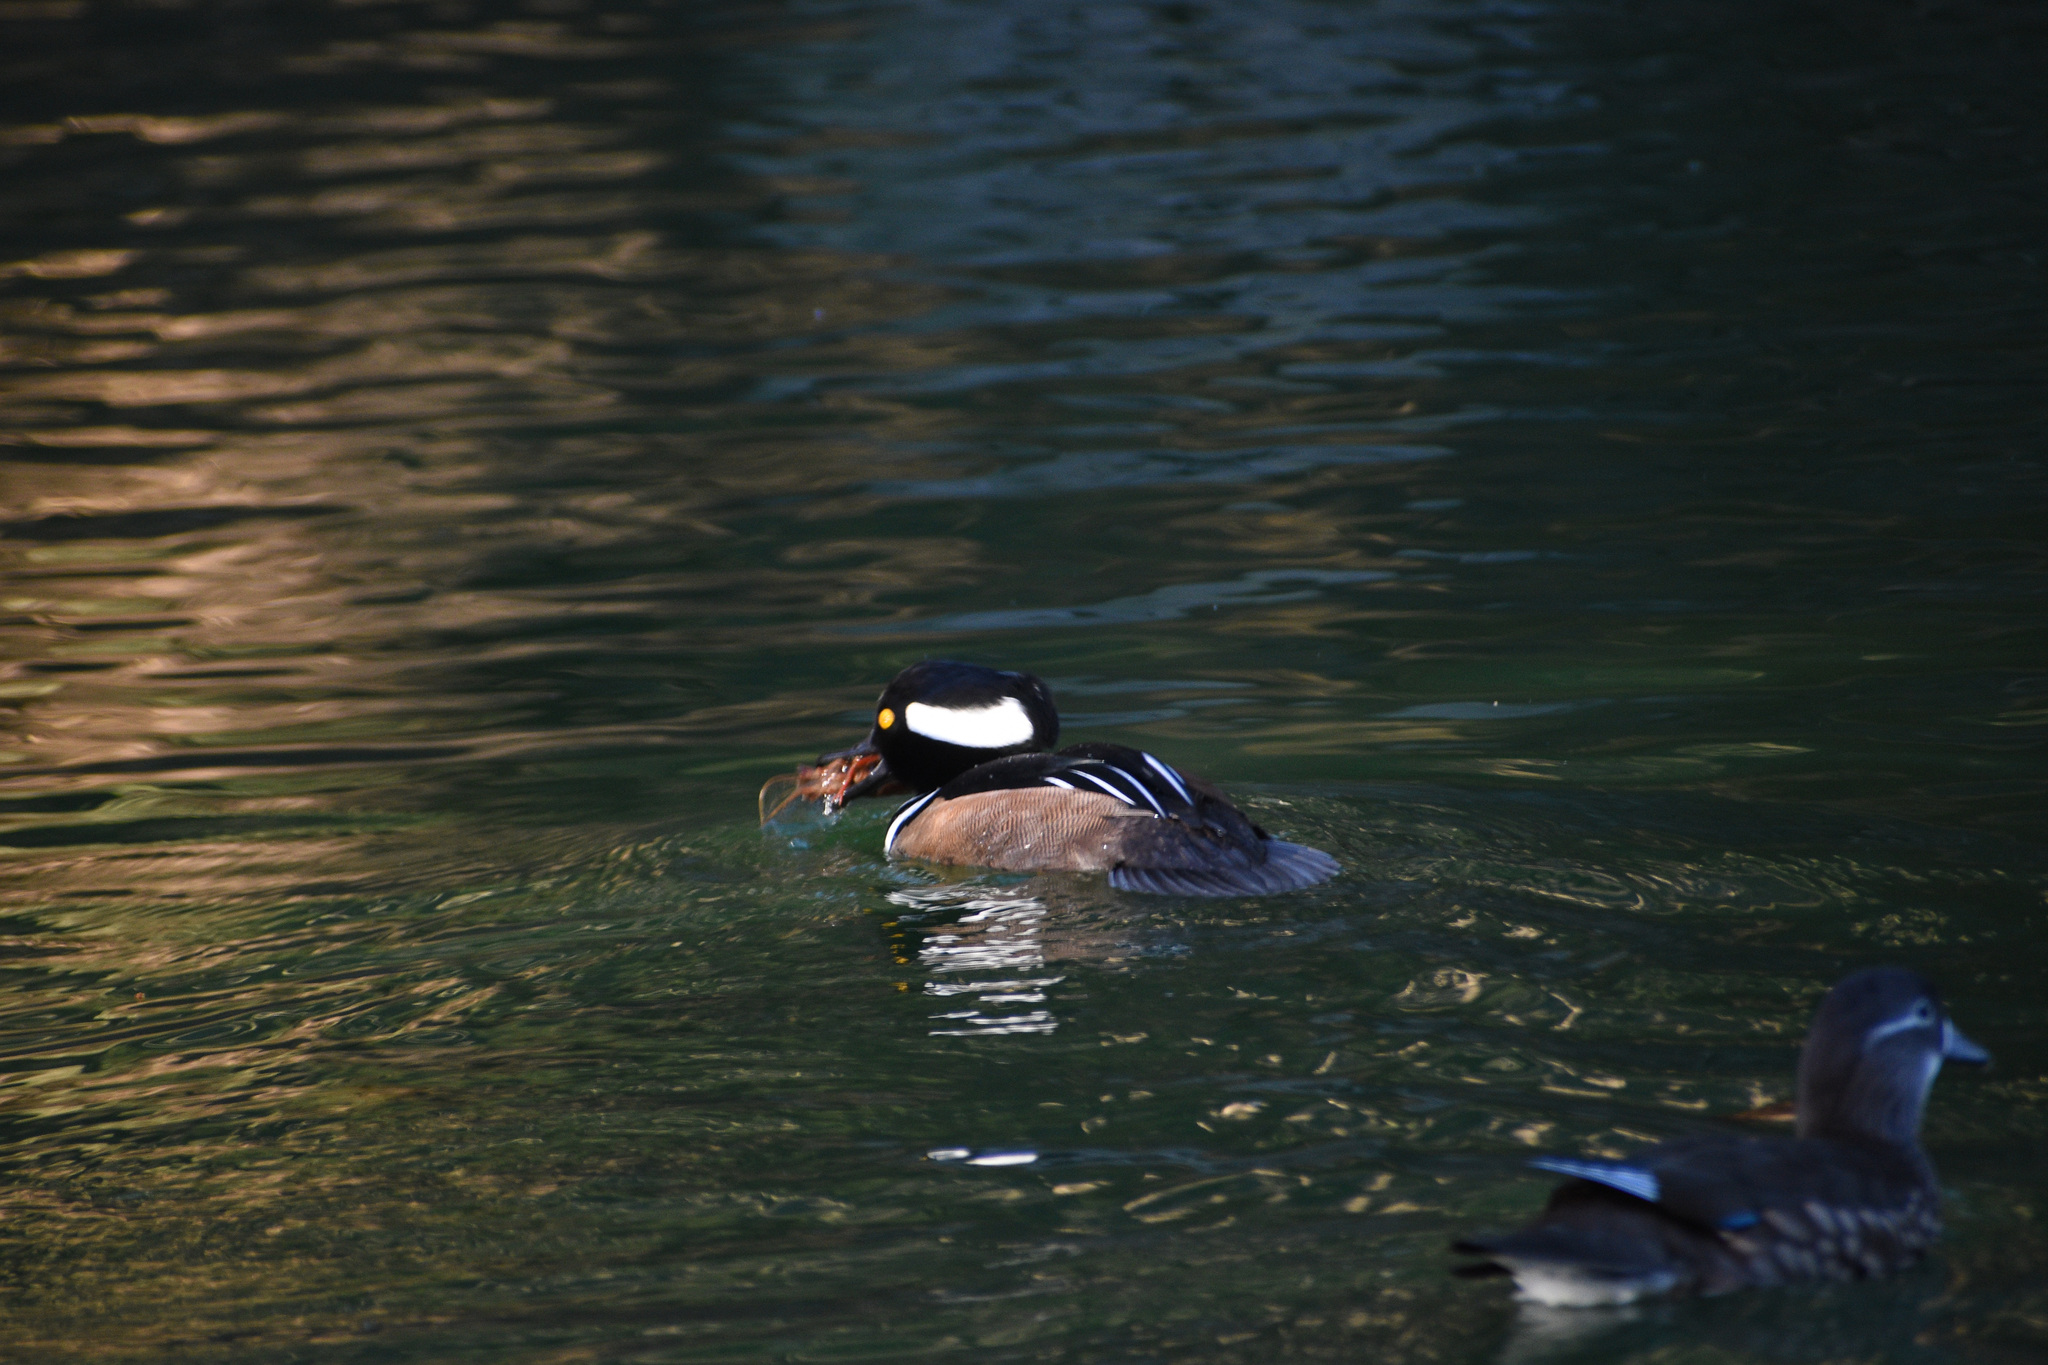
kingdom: Animalia
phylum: Chordata
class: Aves
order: Anseriformes
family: Anatidae
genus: Lophodytes
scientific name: Lophodytes cucullatus
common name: Hooded merganser
